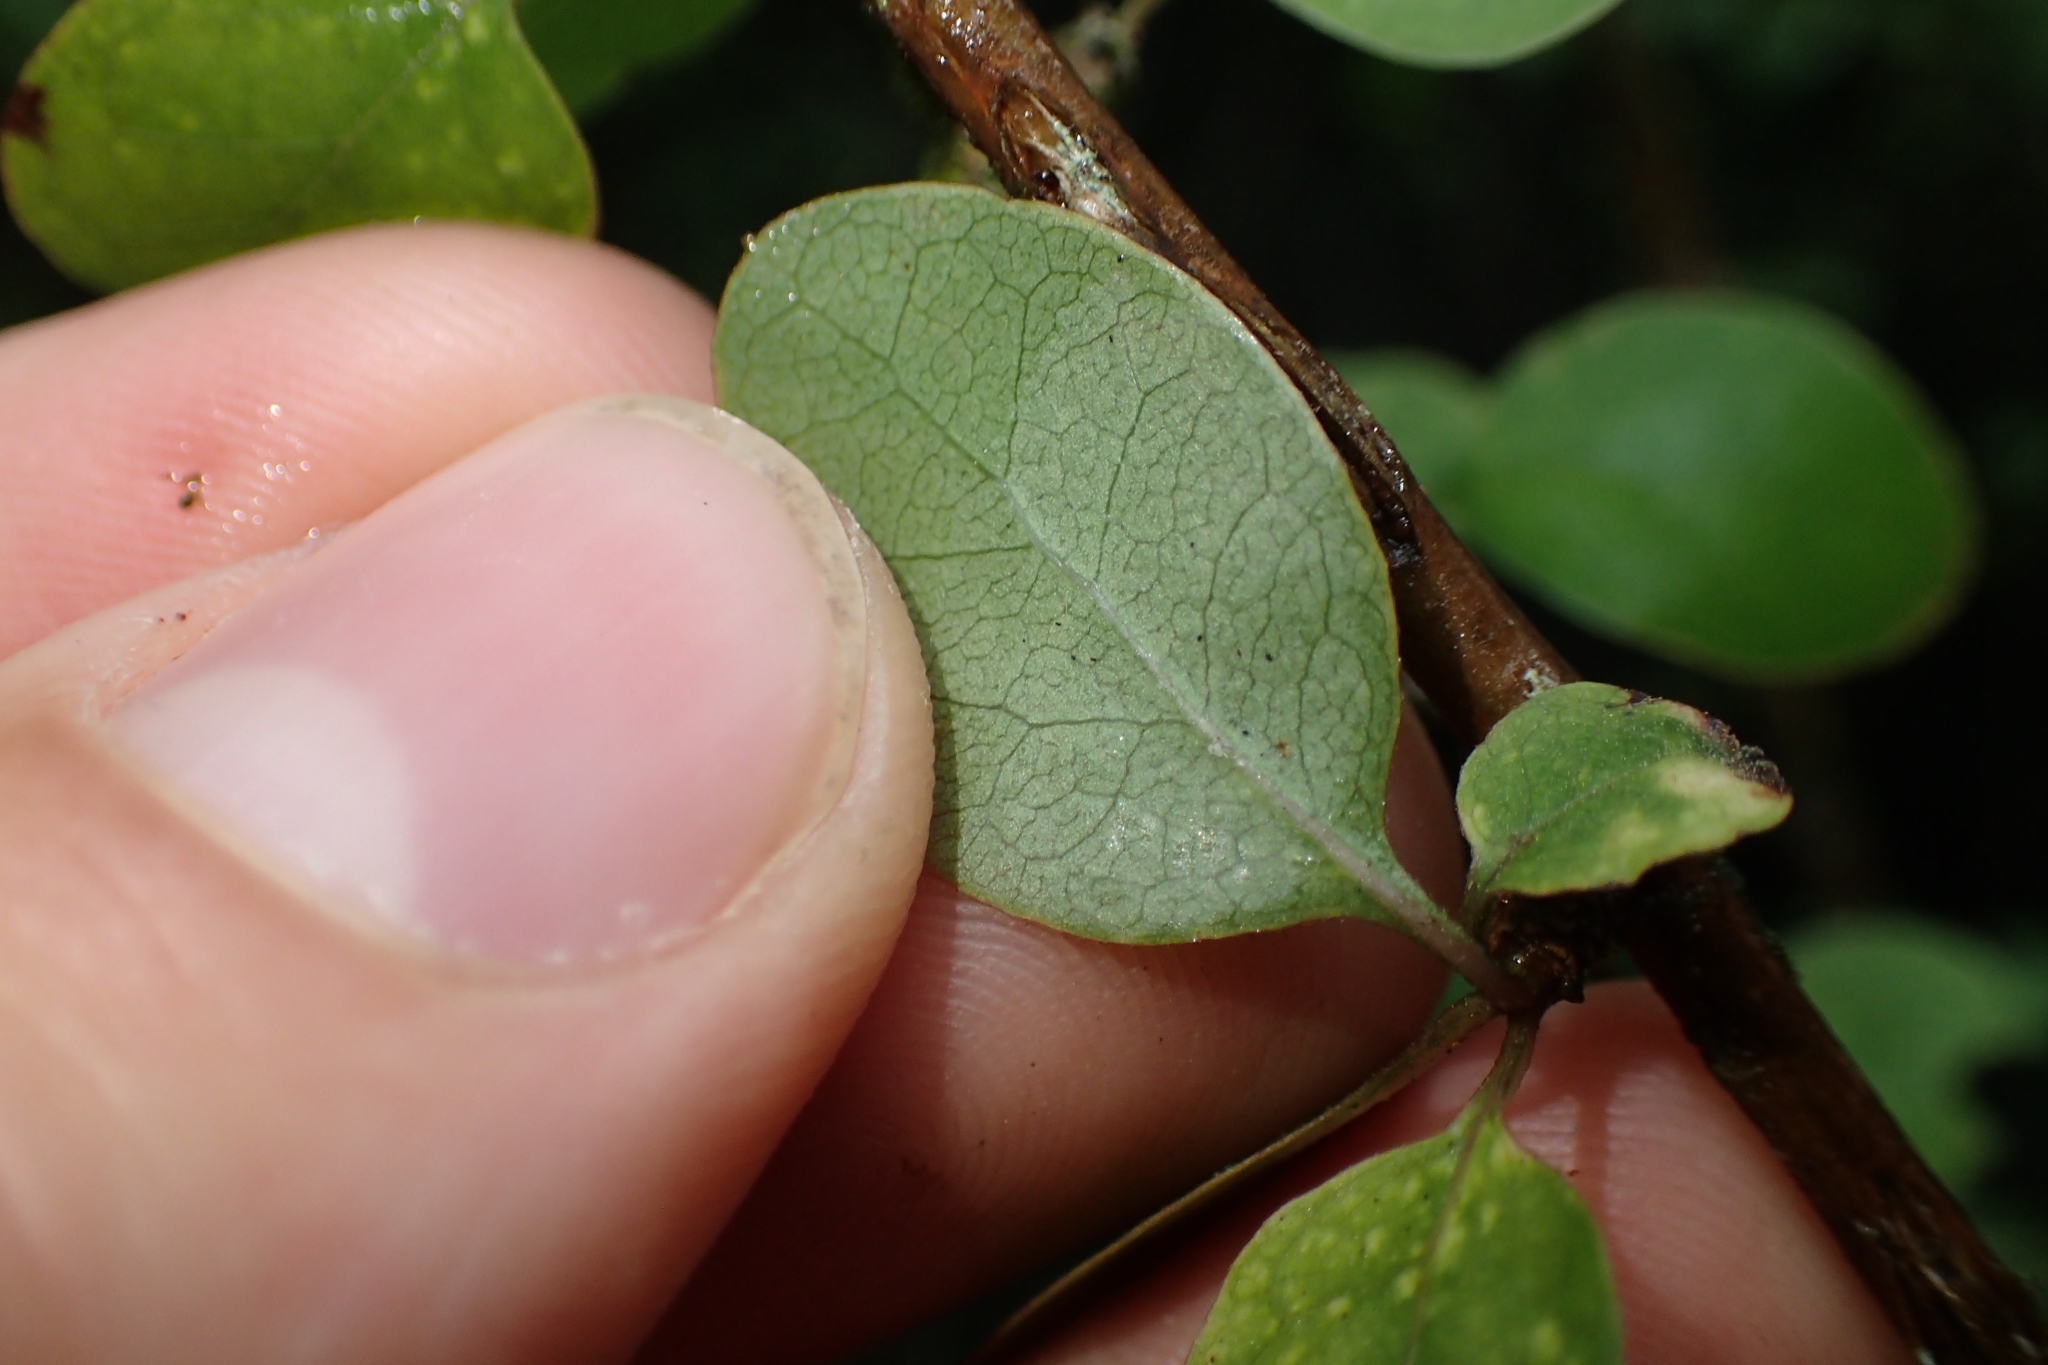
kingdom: Plantae
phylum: Tracheophyta
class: Magnoliopsida
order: Gentianales
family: Rubiaceae
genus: Coprosma
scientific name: Coprosma rubra
